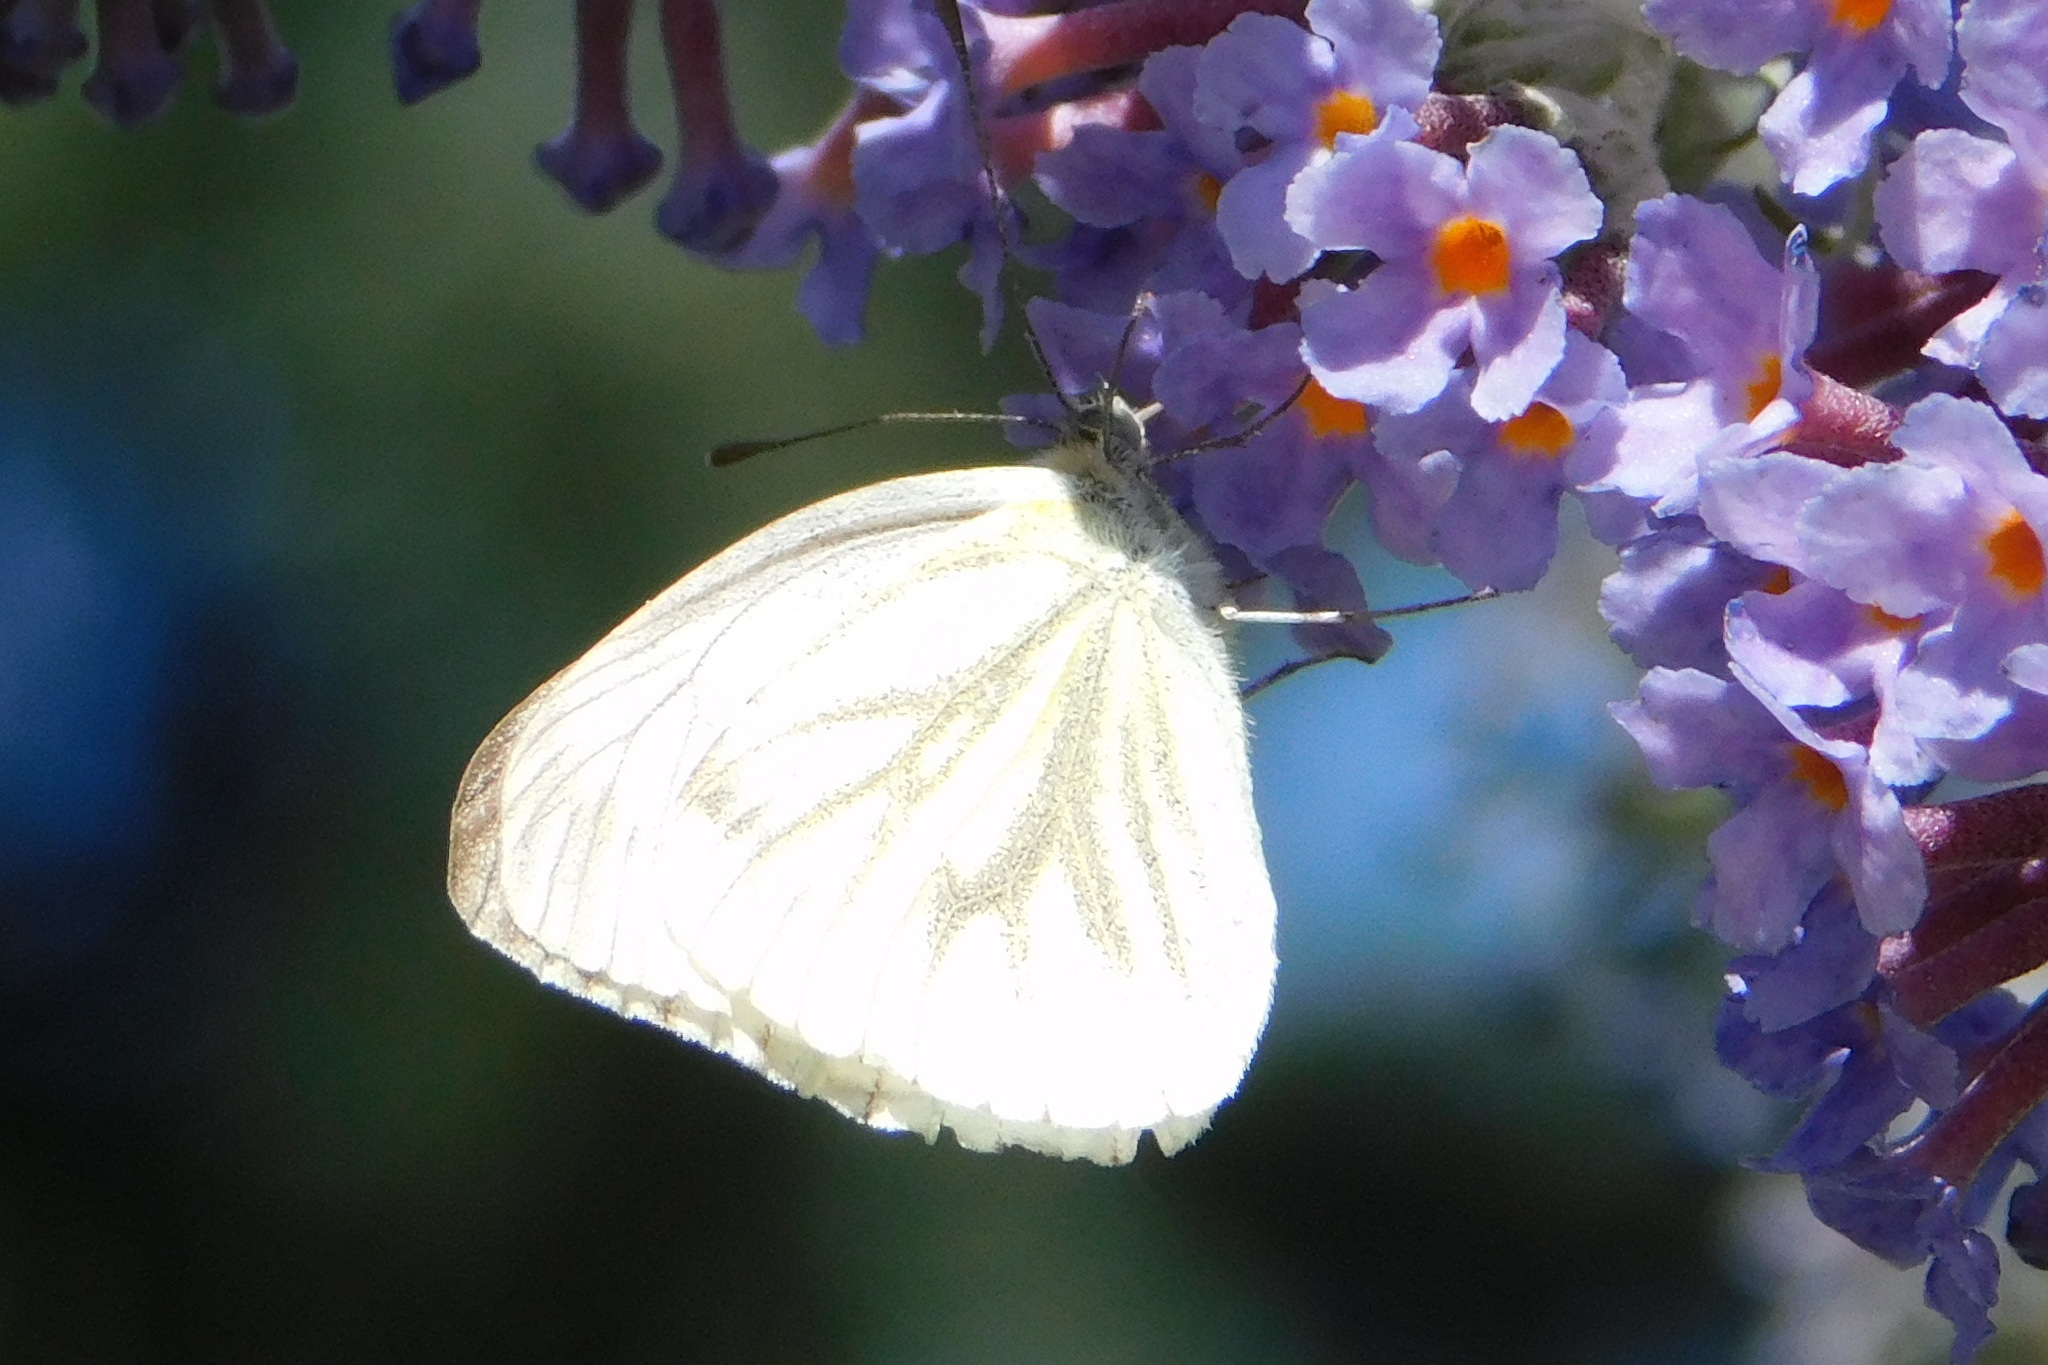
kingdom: Animalia
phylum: Arthropoda
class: Insecta
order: Lepidoptera
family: Pieridae
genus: Pieris
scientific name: Pieris napi
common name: Green-veined white
